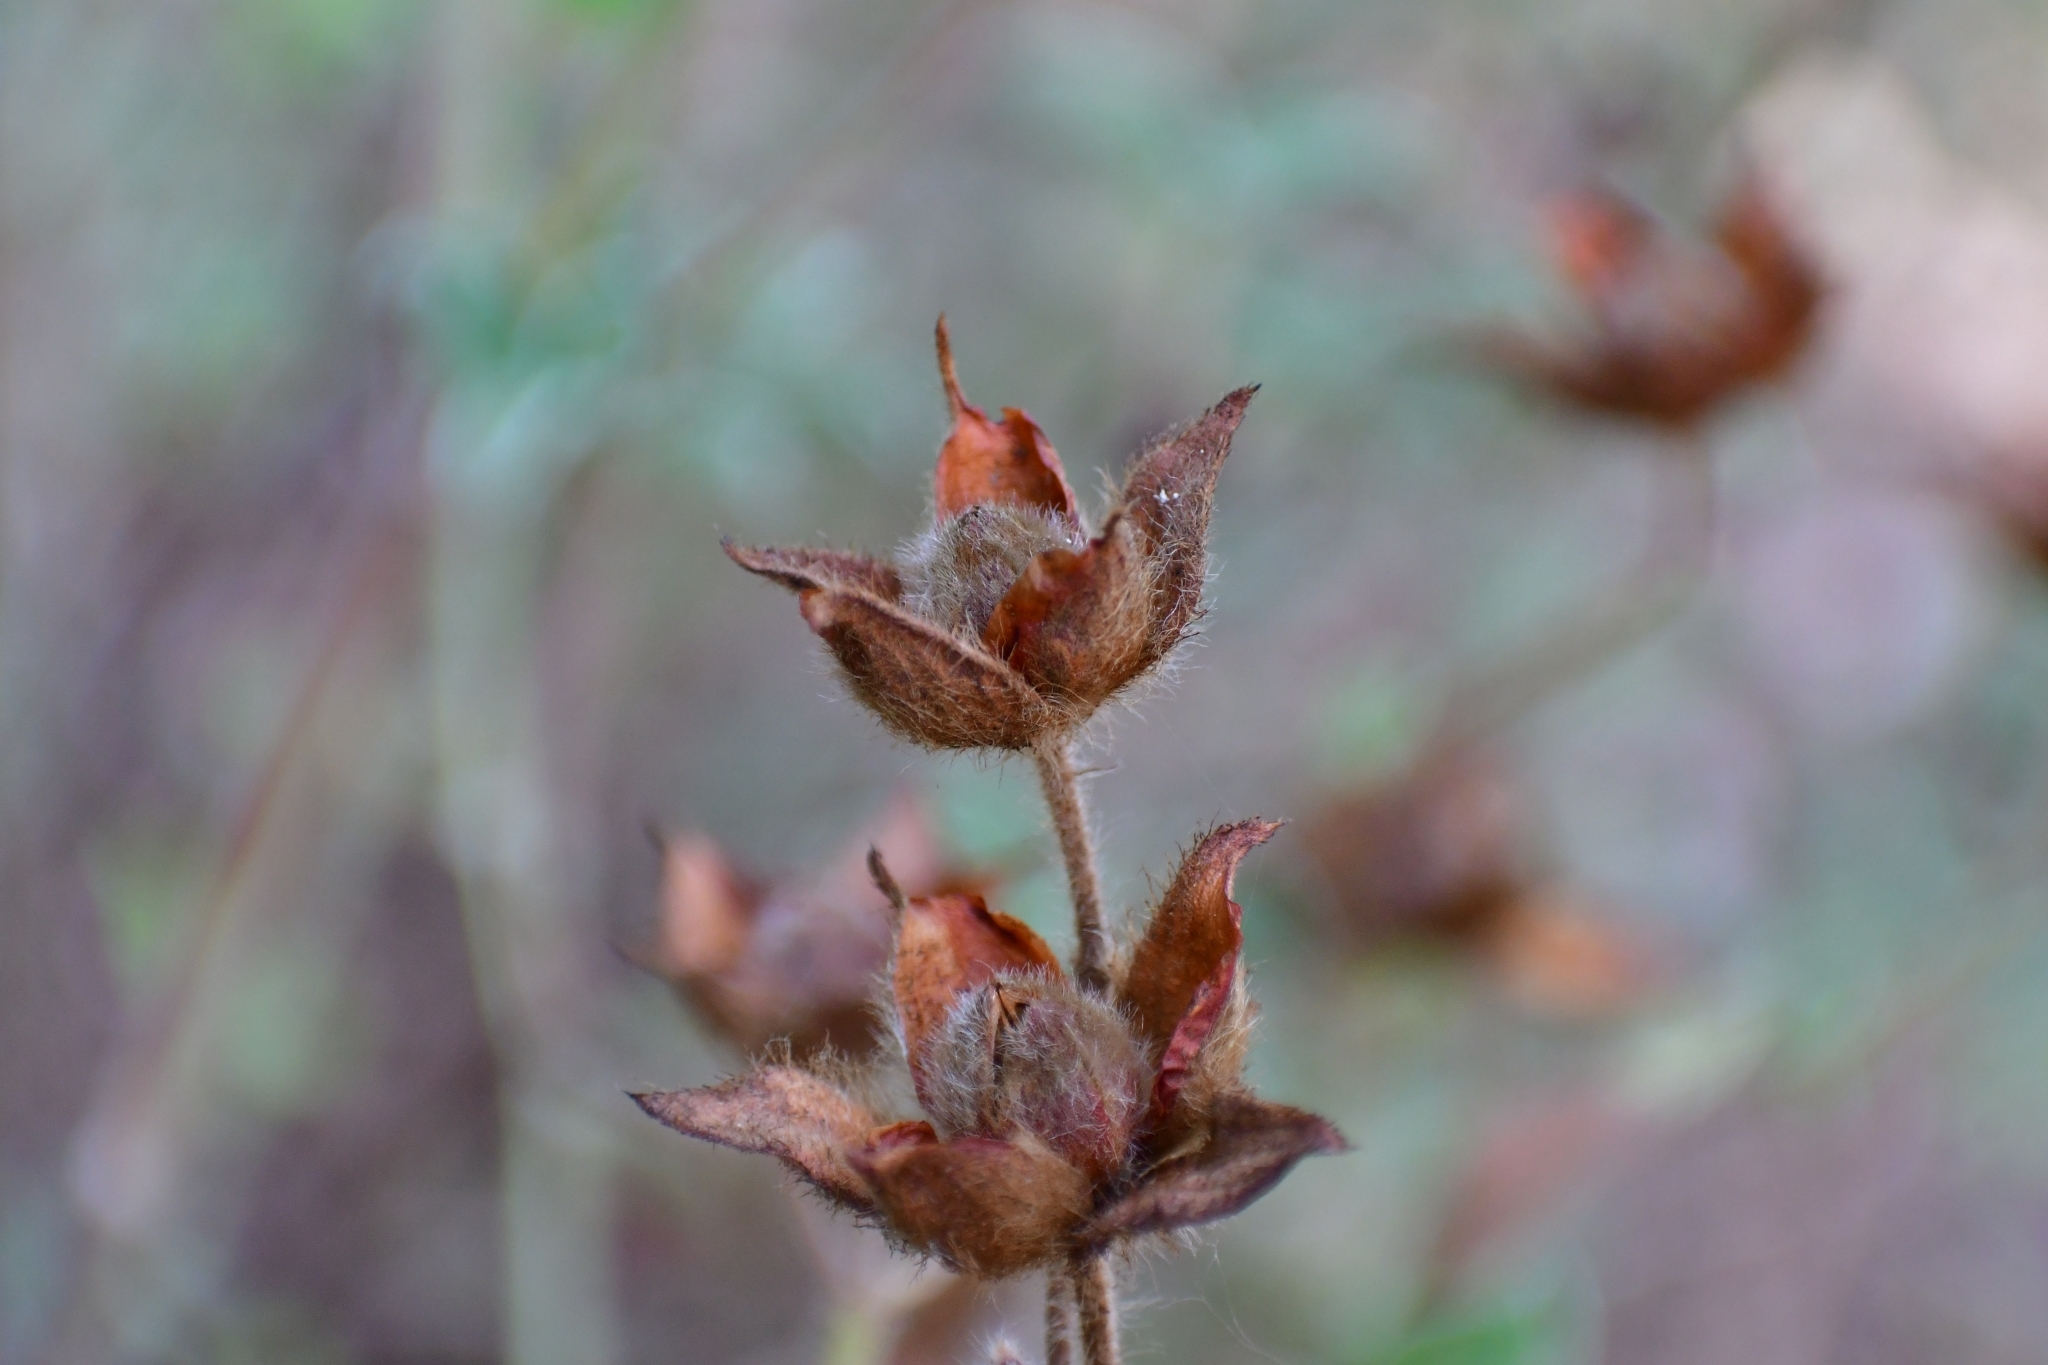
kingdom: Plantae
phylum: Tracheophyta
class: Magnoliopsida
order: Malvales
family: Cistaceae
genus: Cistus
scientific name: Cistus creticus
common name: Cretan rockrose
